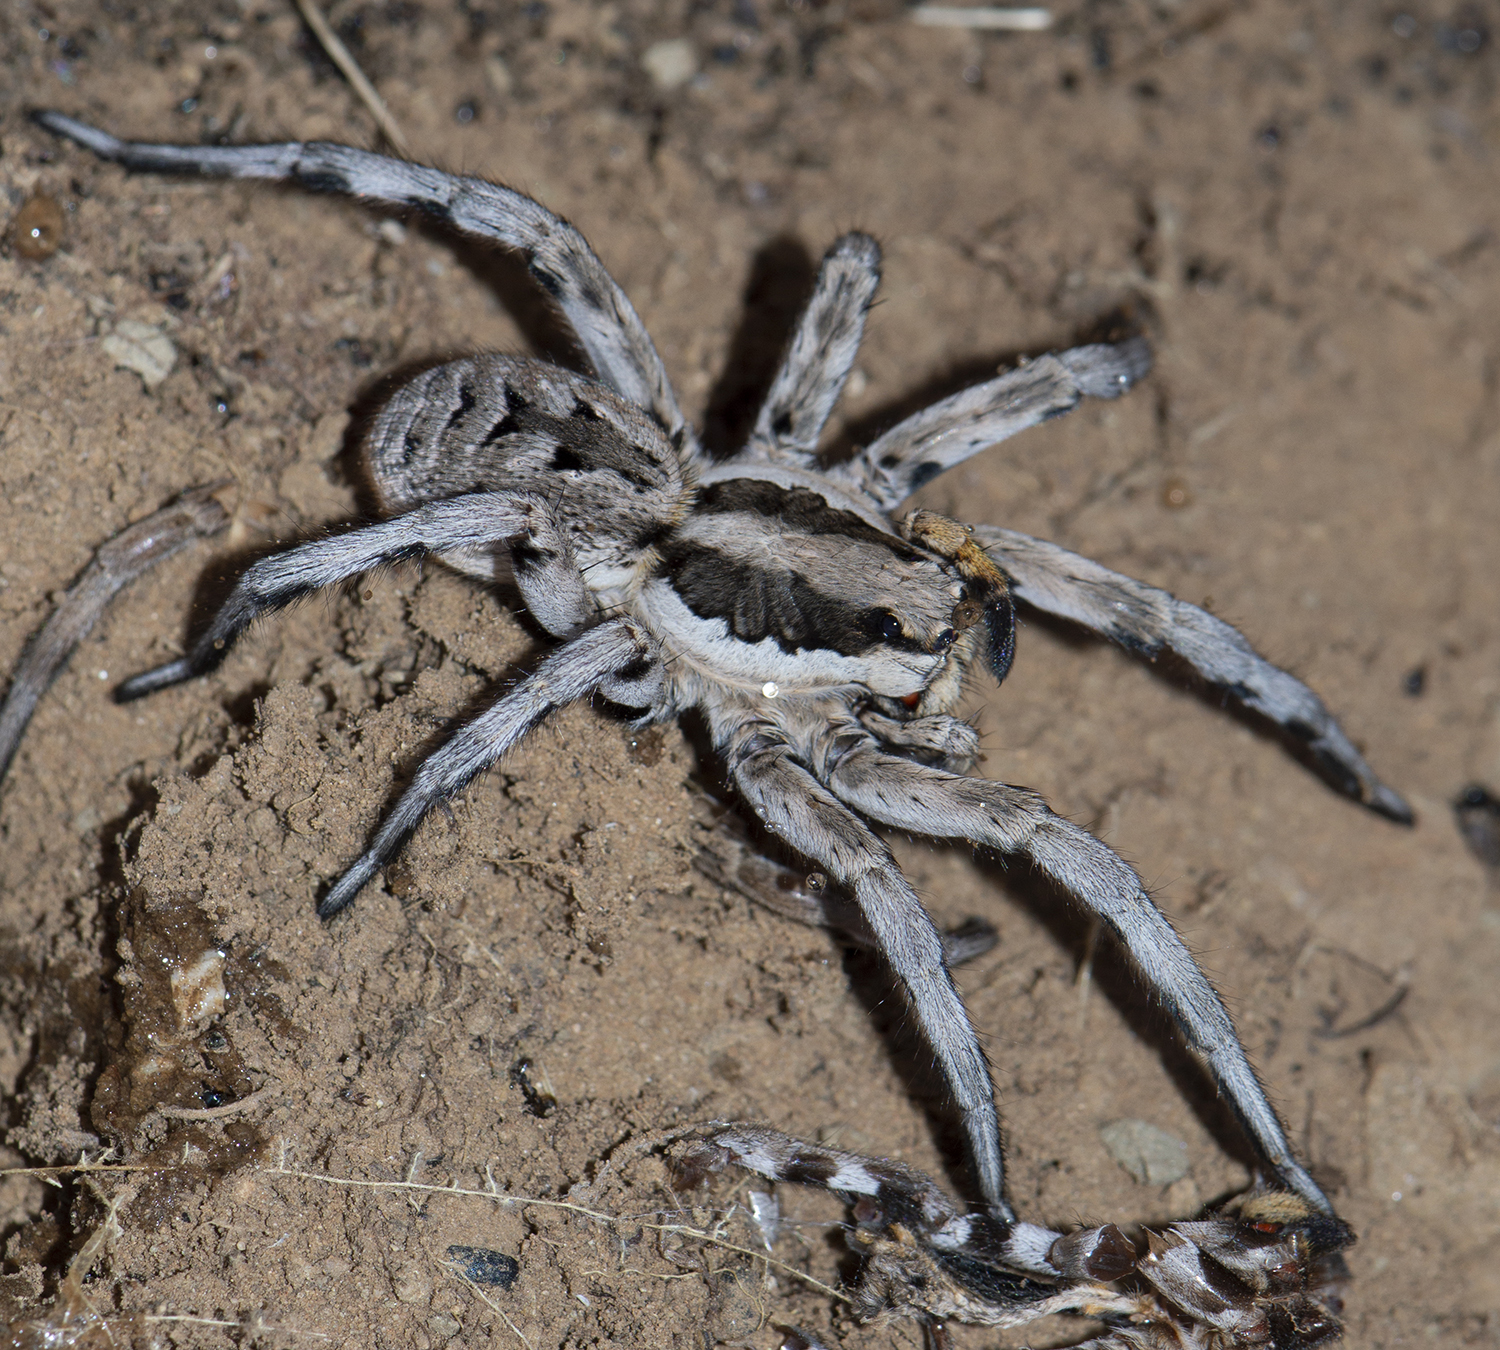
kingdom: Animalia
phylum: Arthropoda
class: Arachnida
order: Araneae
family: Lycosidae
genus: Lycosa
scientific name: Lycosa praegrandis
